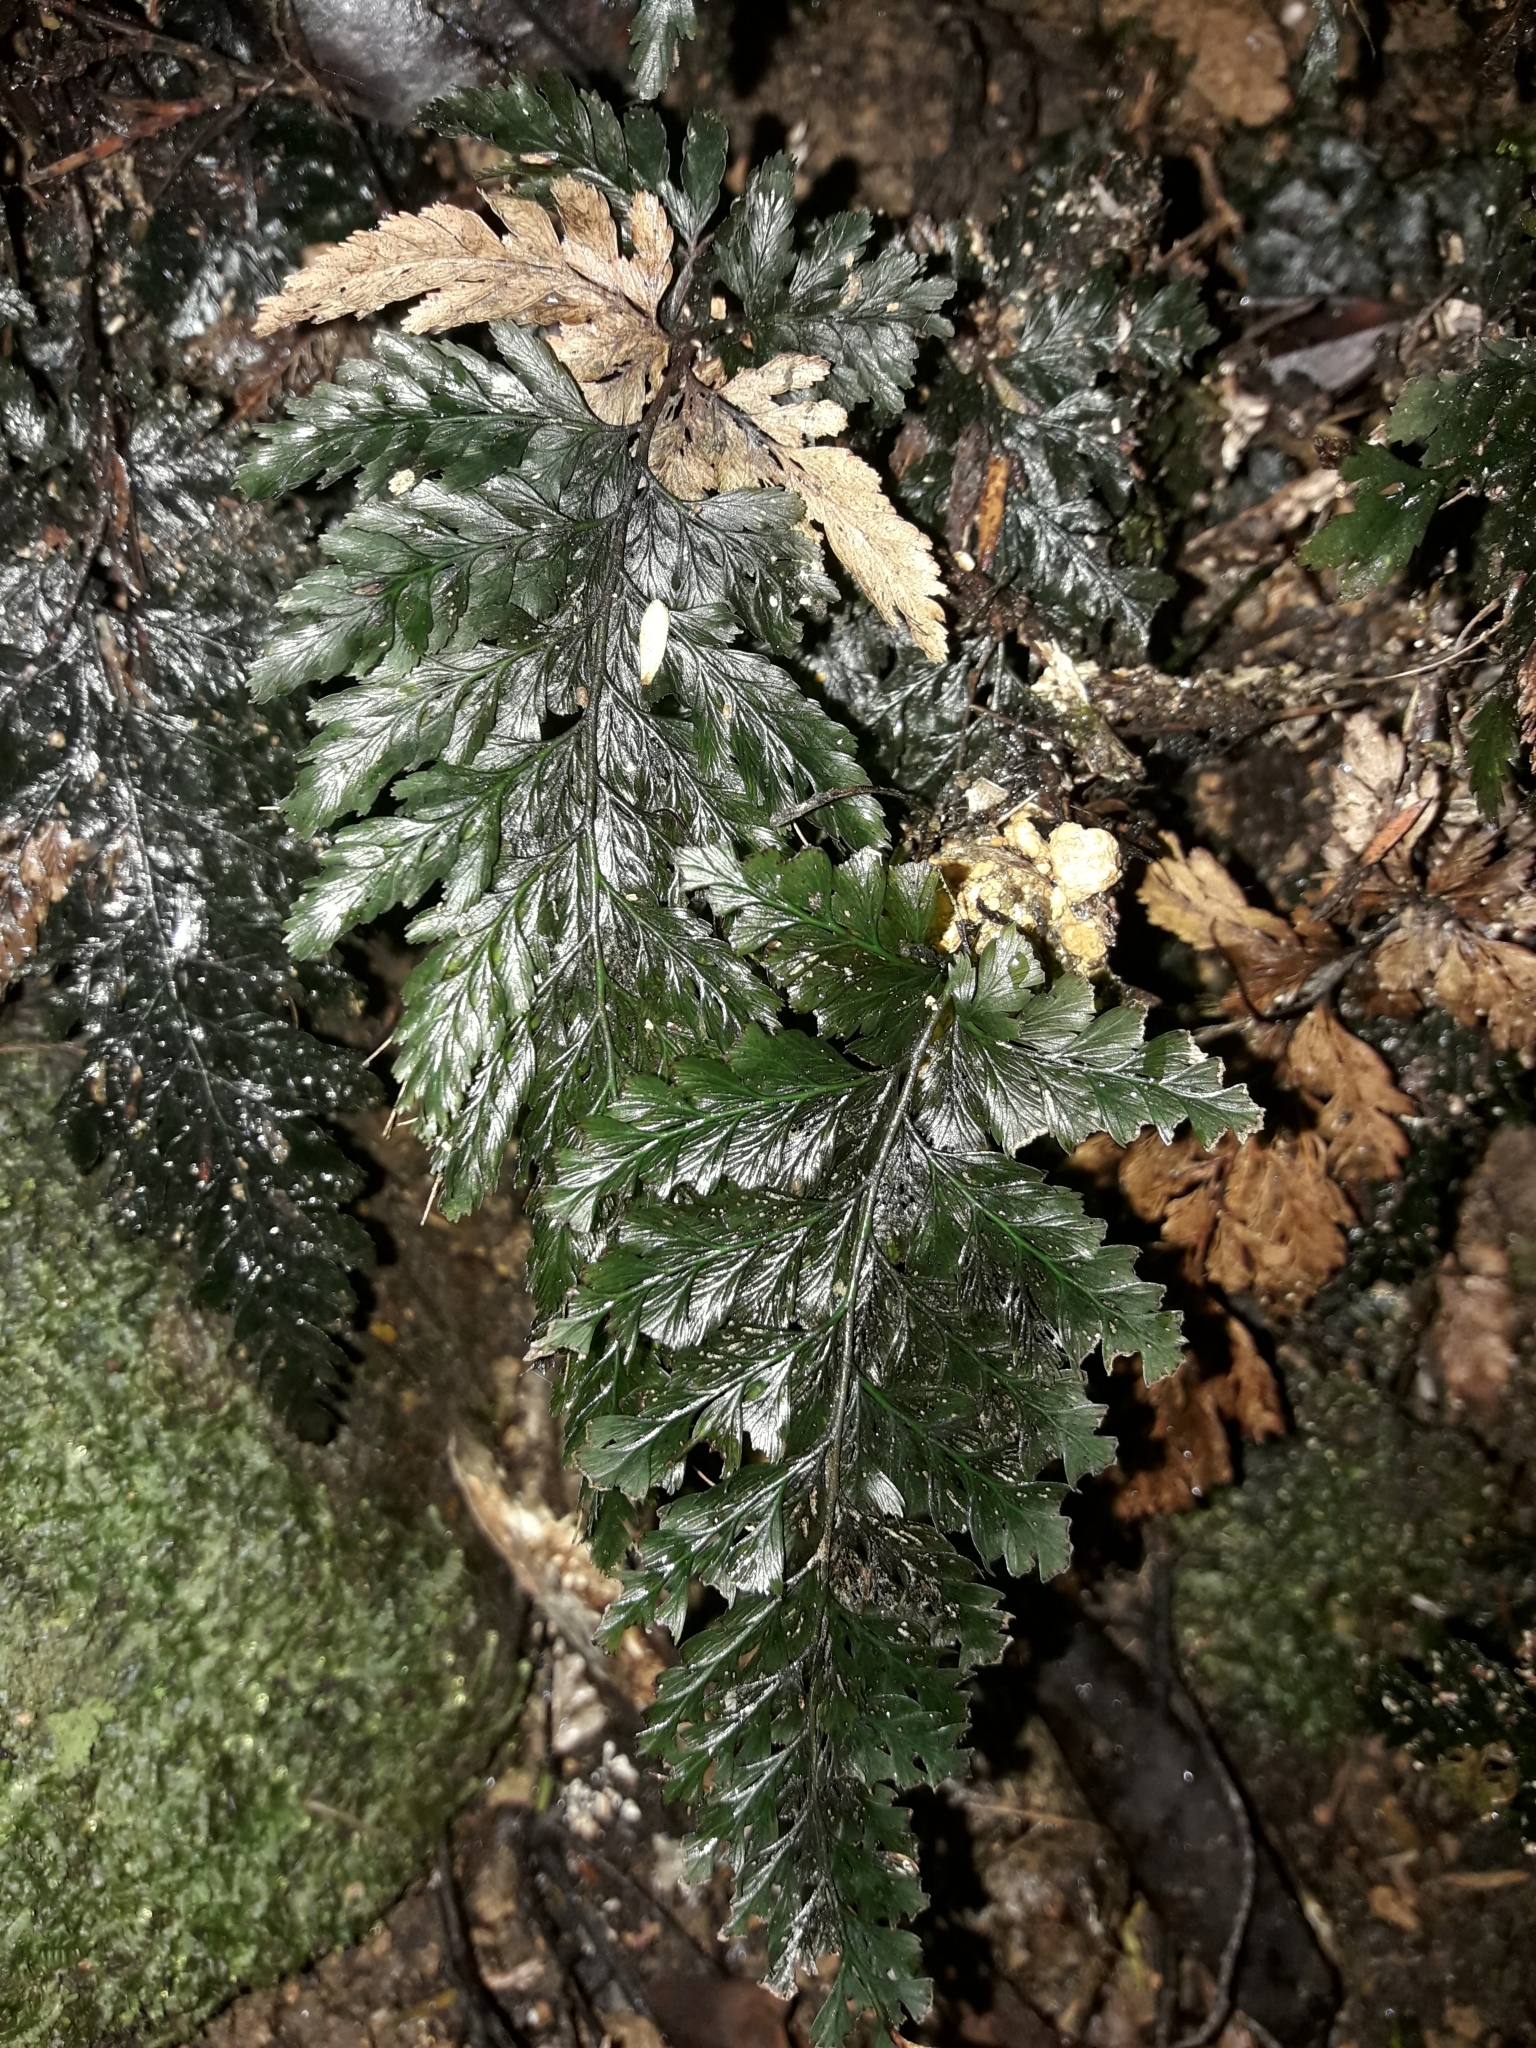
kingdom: Plantae
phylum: Tracheophyta
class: Polypodiopsida
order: Hymenophyllales
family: Hymenophyllaceae
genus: Abrodictyum
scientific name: Abrodictyum elongatum
